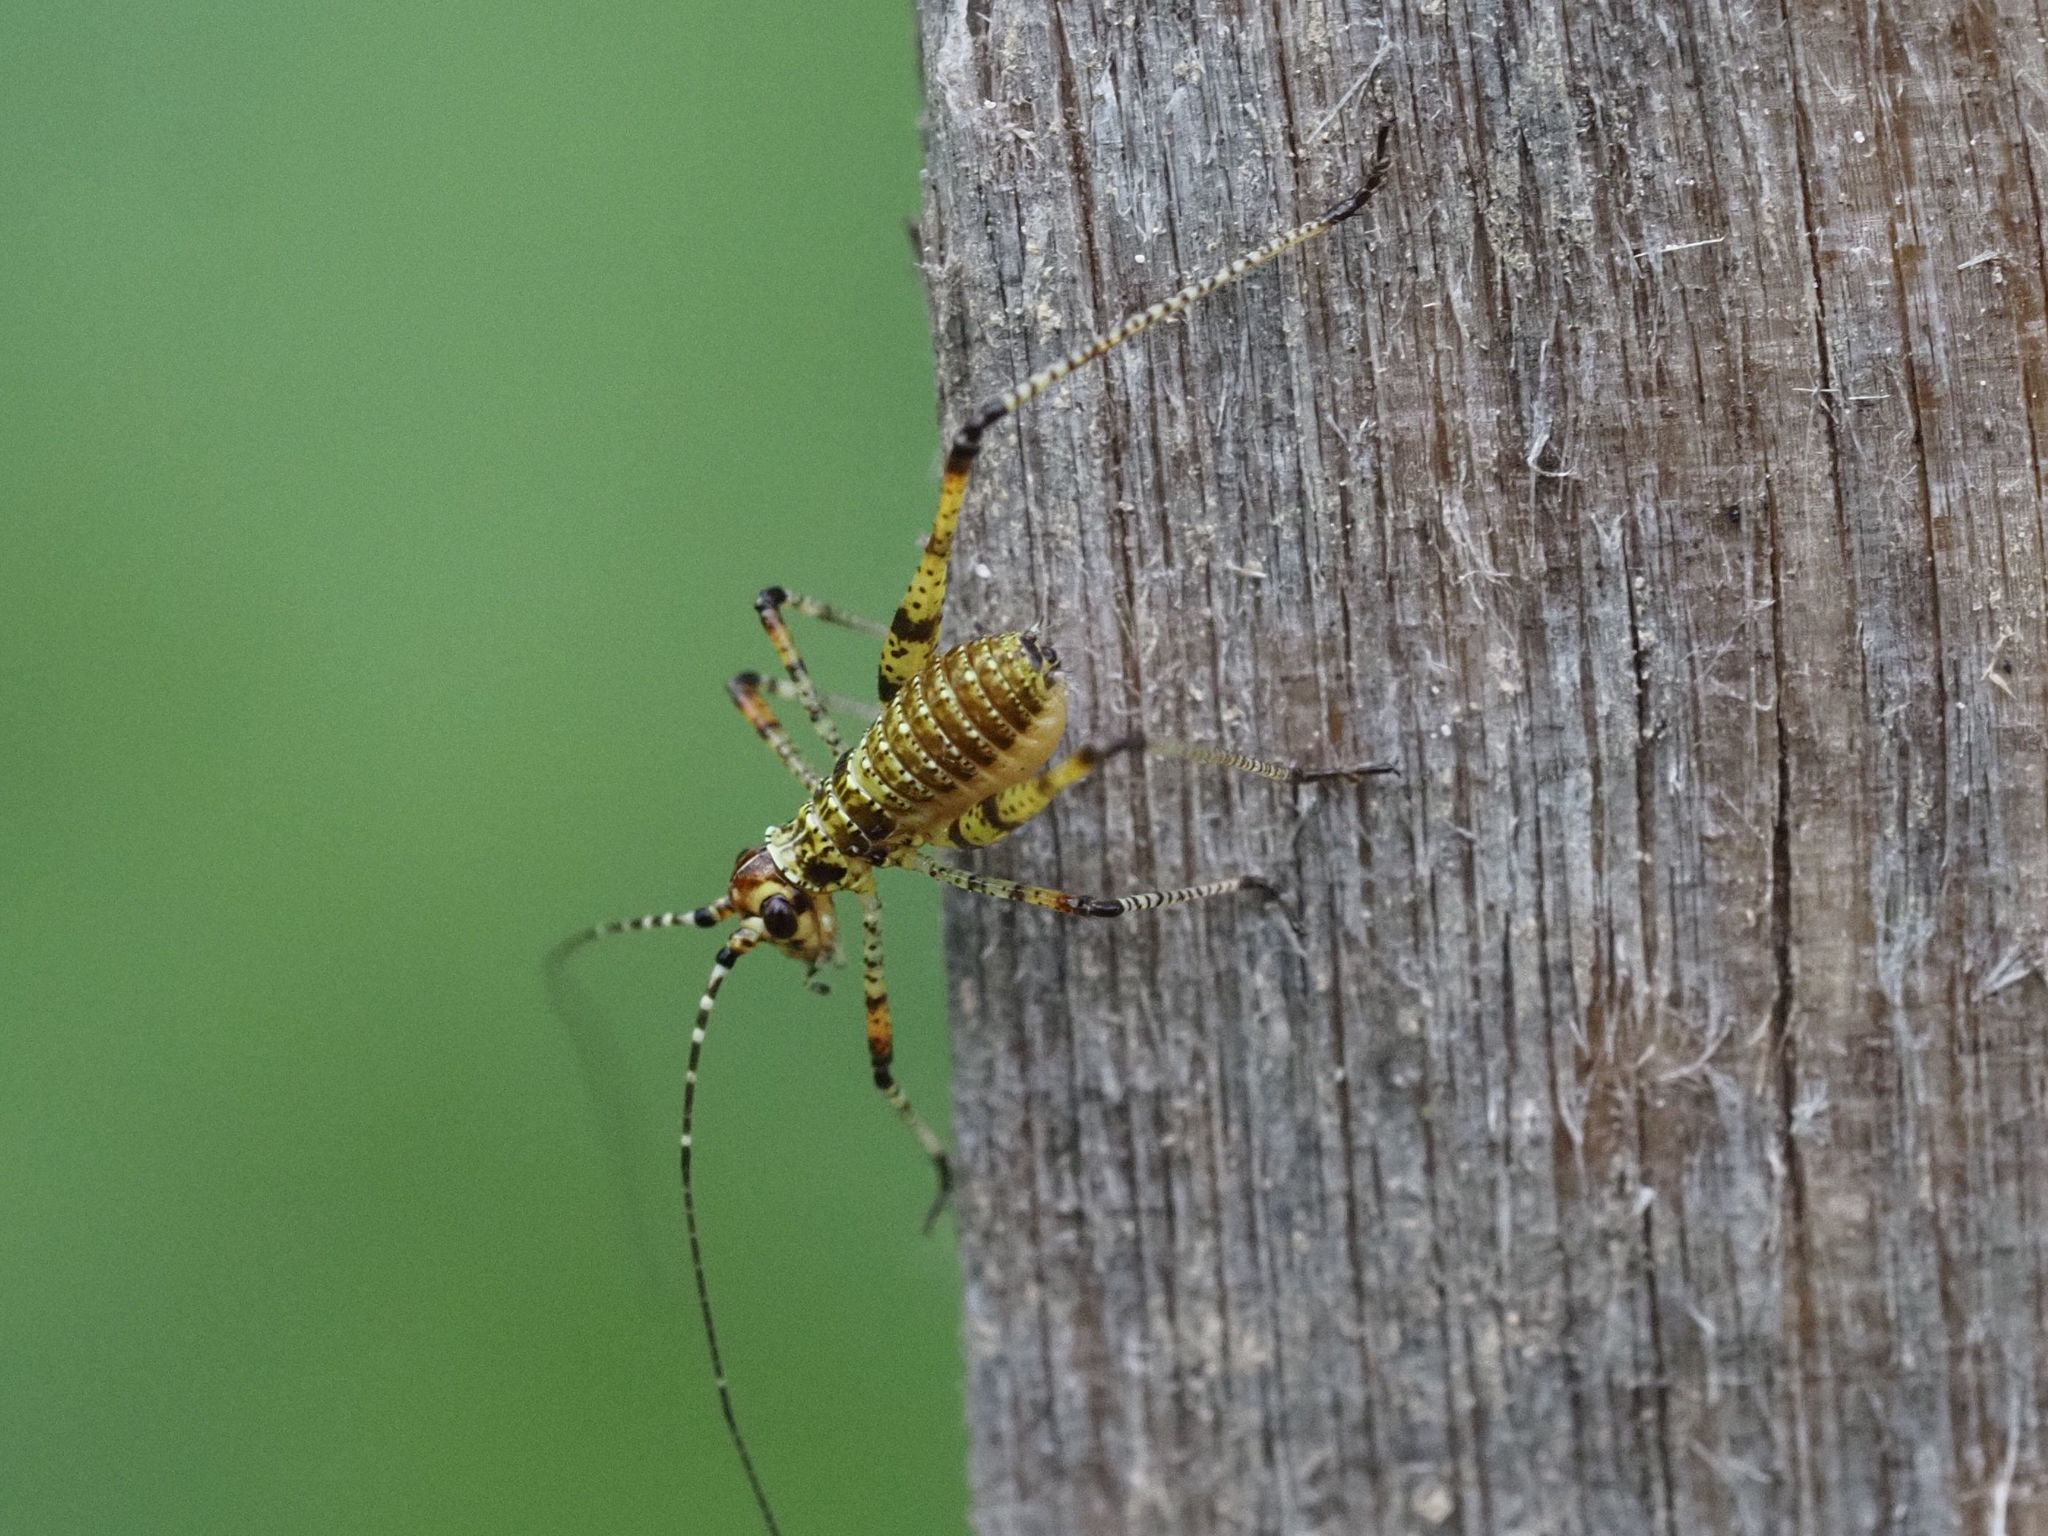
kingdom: Animalia
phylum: Arthropoda
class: Insecta
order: Orthoptera
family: Tettigoniidae
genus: Phaneroptera
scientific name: Phaneroptera nana
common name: Southern sickle bush-cricket
